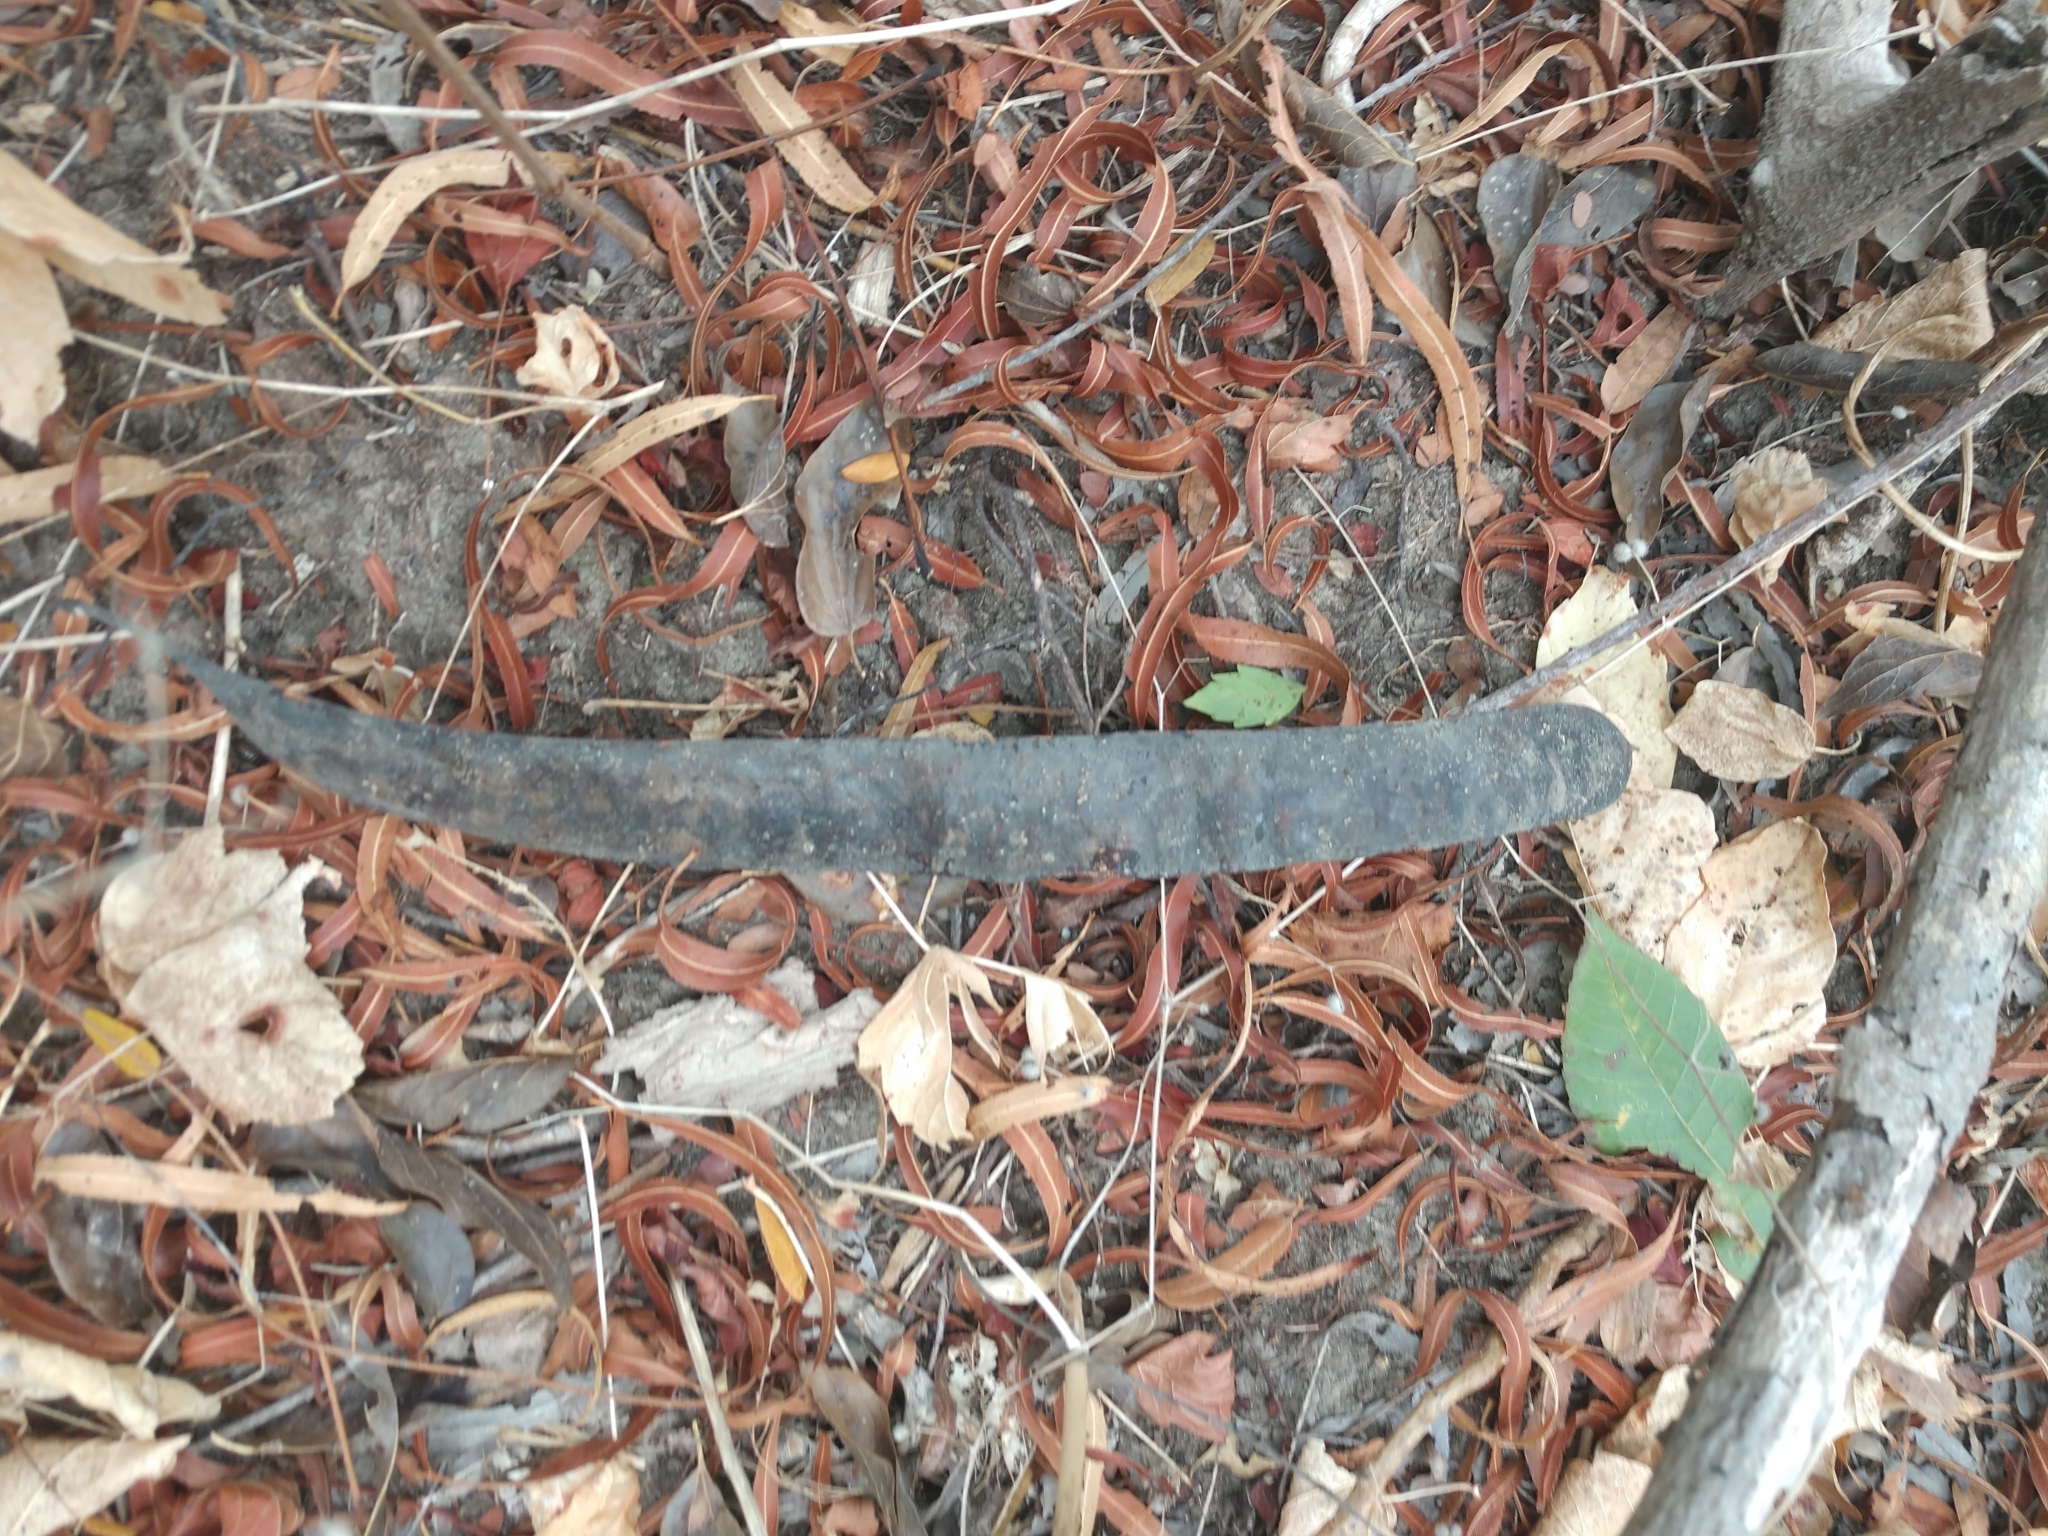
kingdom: Plantae
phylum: Tracheophyta
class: Magnoliopsida
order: Fabales
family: Fabaceae
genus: Gleditsia
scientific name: Gleditsia triacanthos
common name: Common honeylocust
